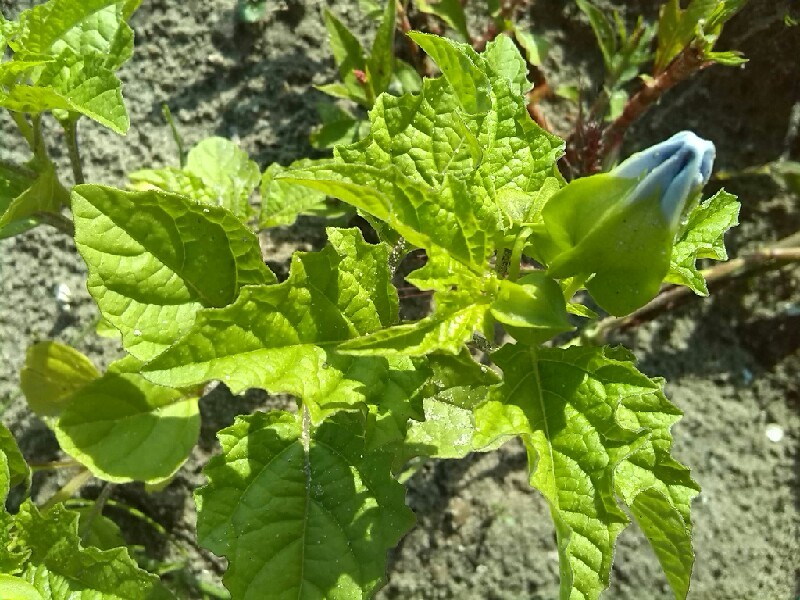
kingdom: Plantae
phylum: Tracheophyta
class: Magnoliopsida
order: Solanales
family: Solanaceae
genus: Nicandra
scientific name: Nicandra physalodes
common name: Apple-of-peru
